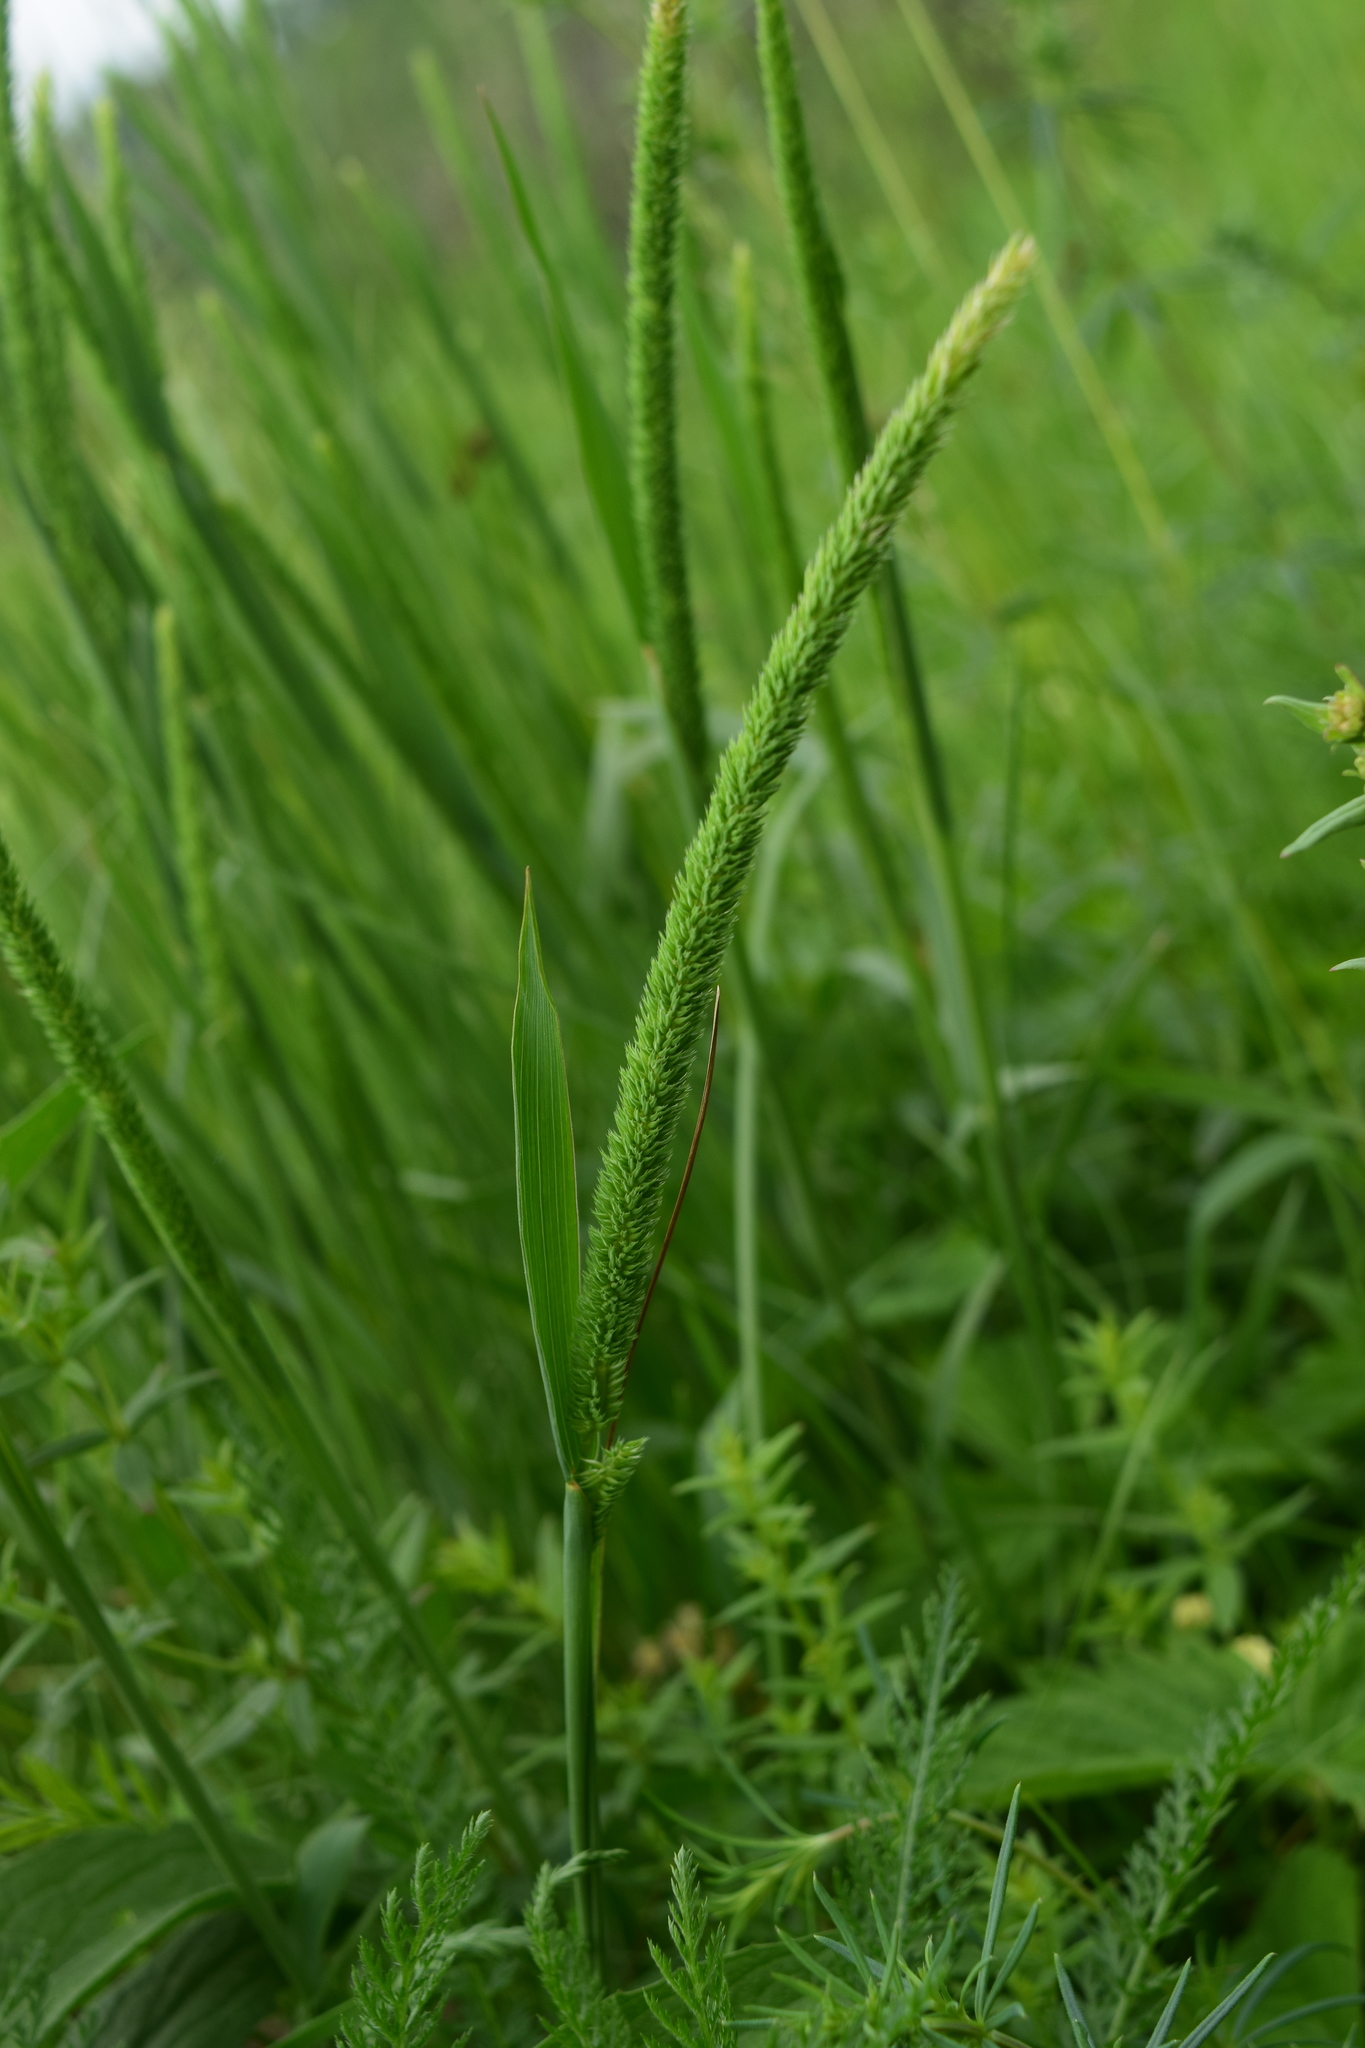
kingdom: Plantae
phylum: Tracheophyta
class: Liliopsida
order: Poales
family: Poaceae
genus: Phleum
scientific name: Phleum phleoides
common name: Purple-stem cat's-tail
